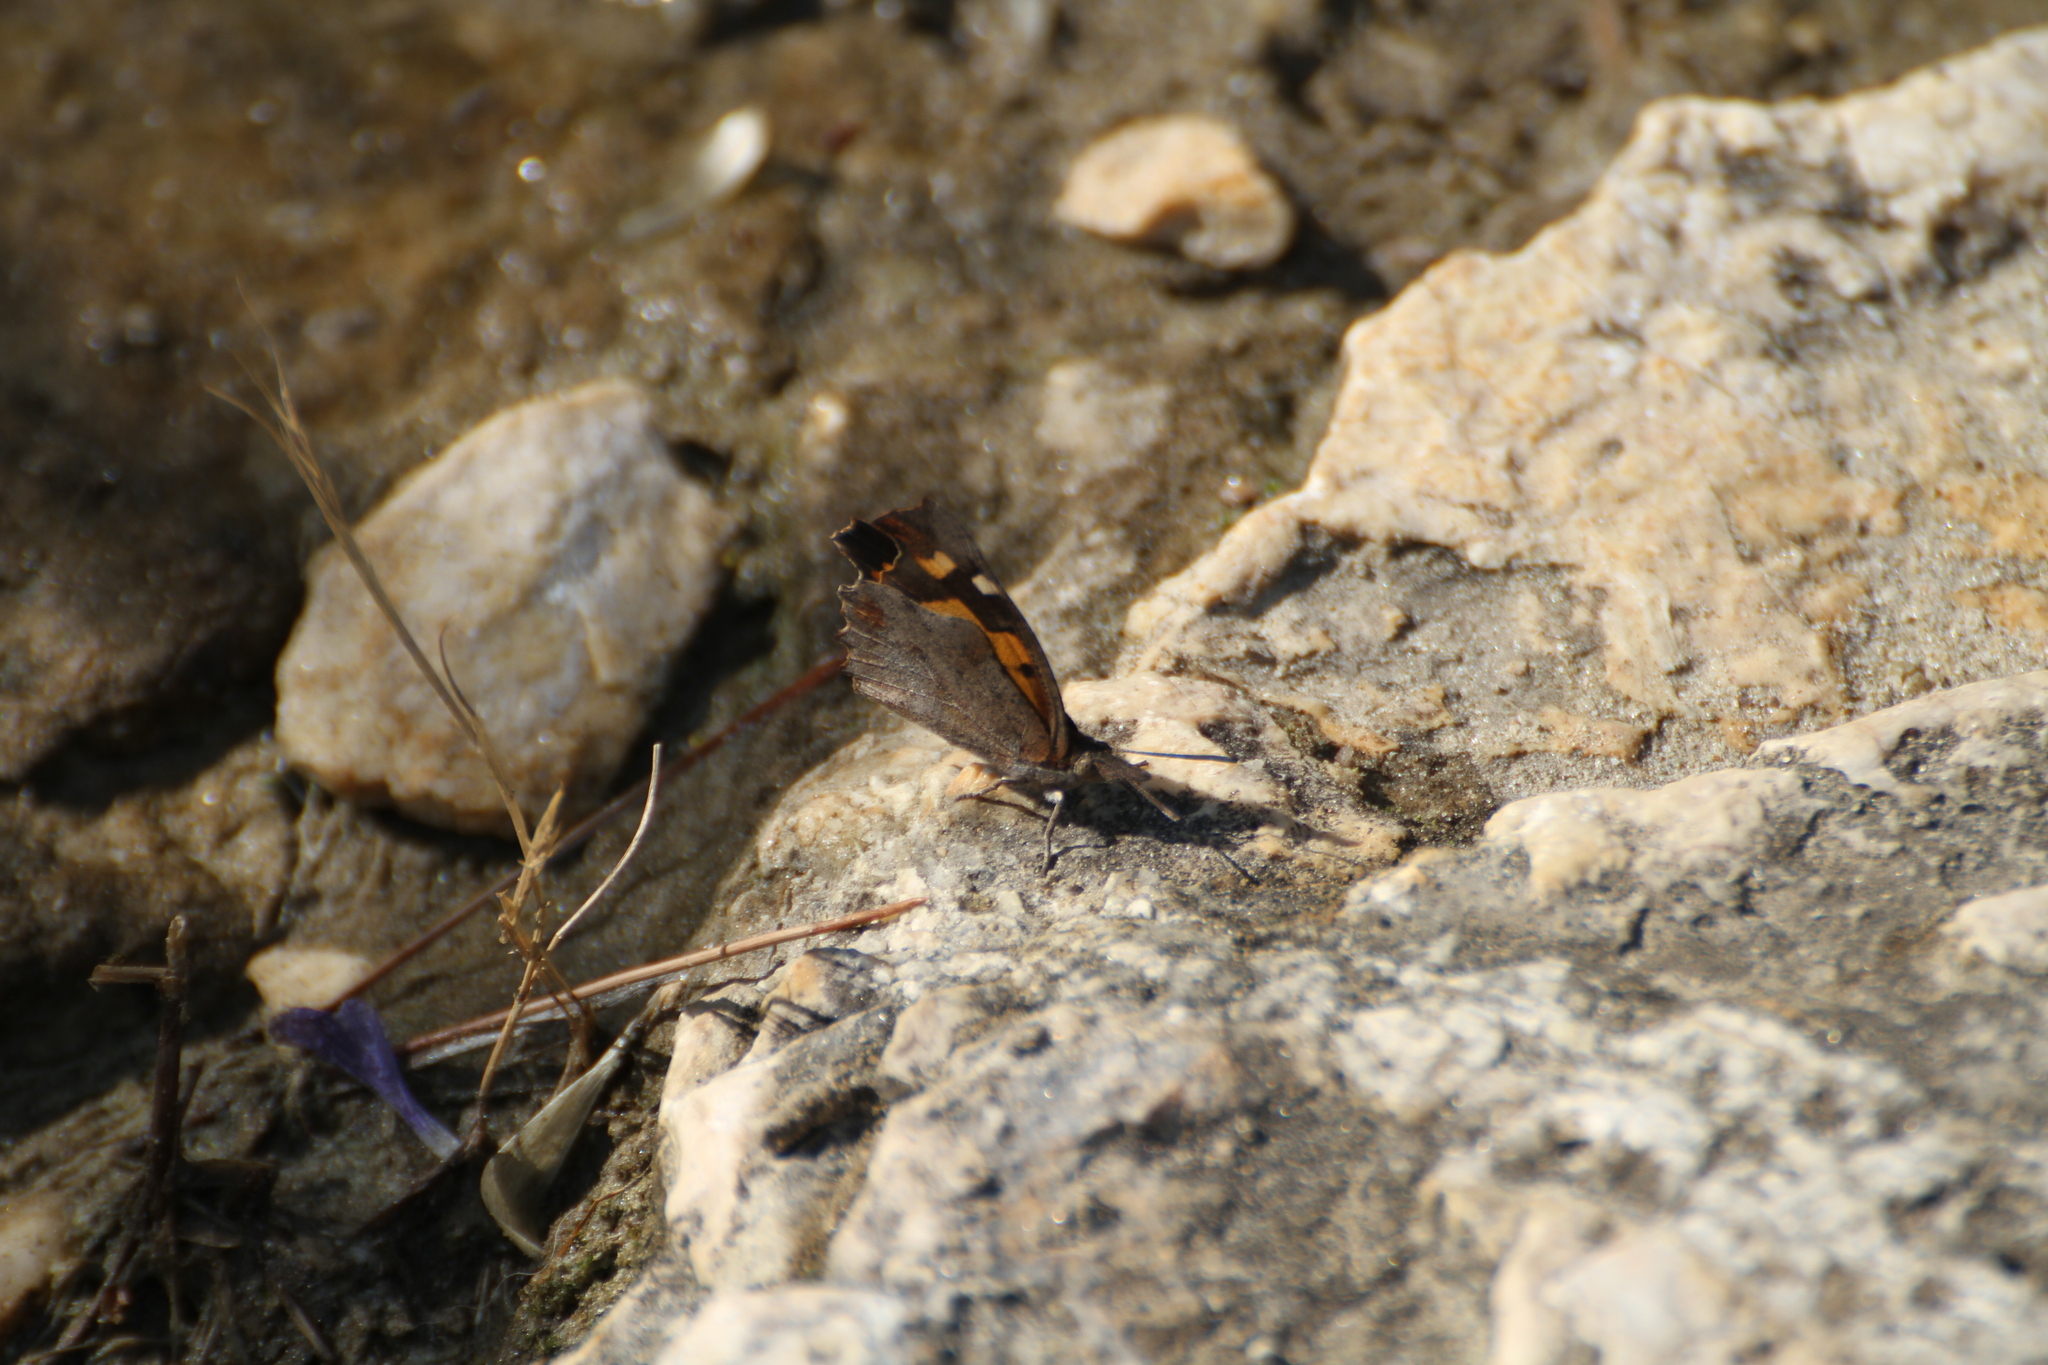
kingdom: Animalia
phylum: Arthropoda
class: Insecta
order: Lepidoptera
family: Nymphalidae
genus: Libythea
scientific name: Libythea celtis
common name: Nettle-tree butterfly
